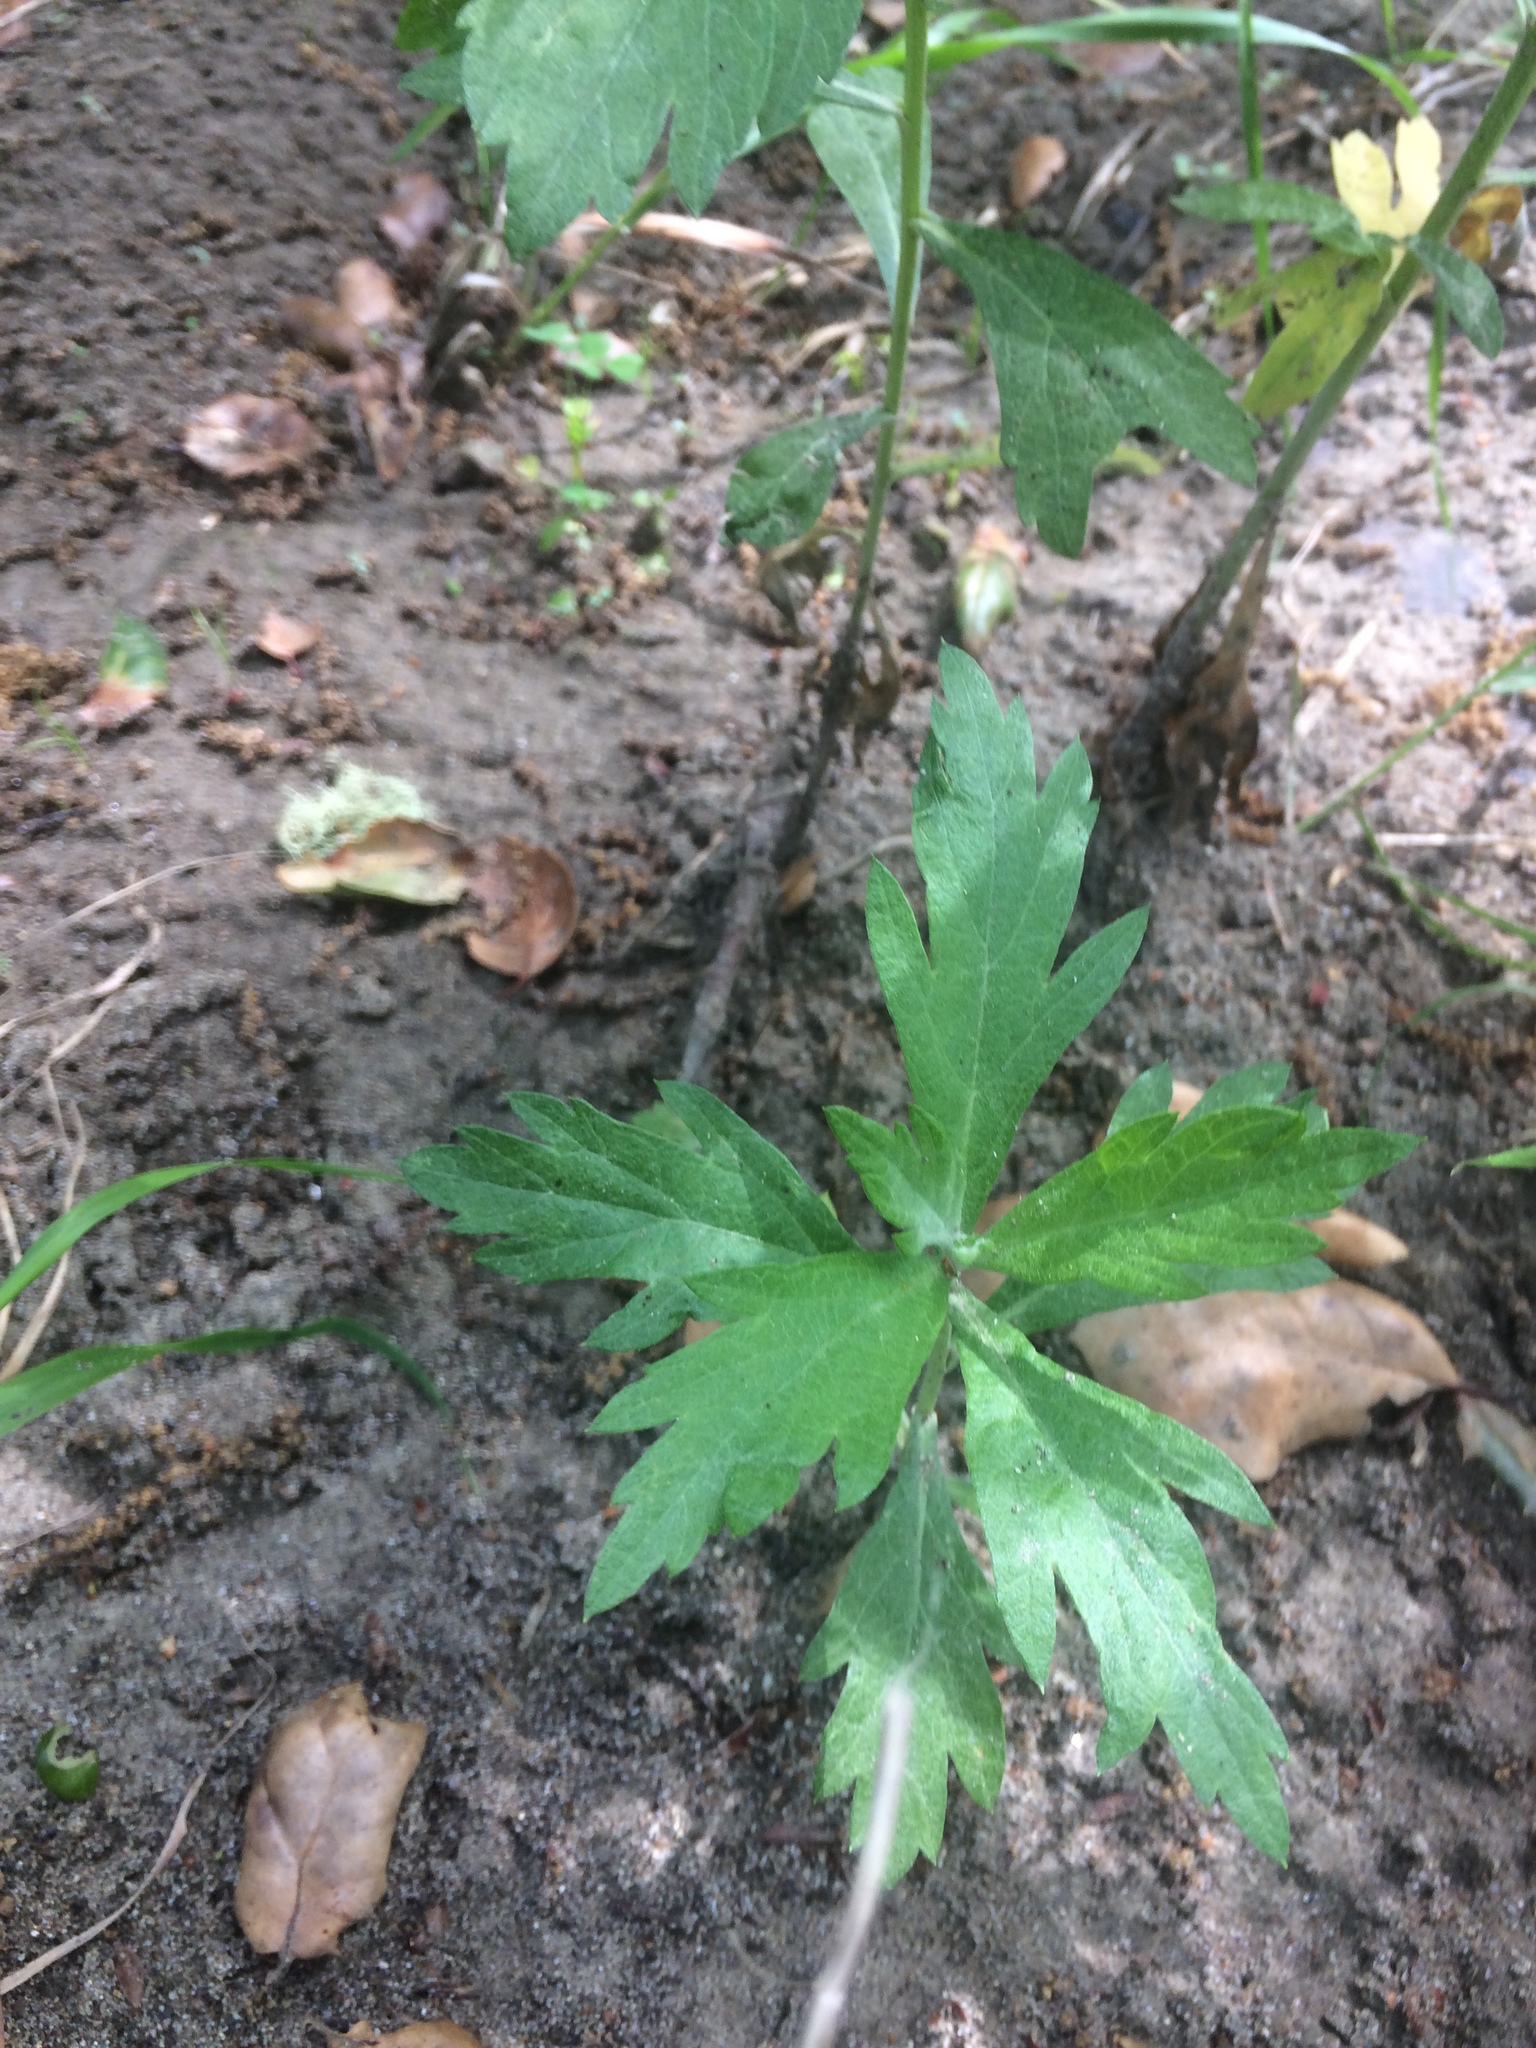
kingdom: Plantae
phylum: Tracheophyta
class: Magnoliopsida
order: Asterales
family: Asteraceae
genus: Artemisia
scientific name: Artemisia douglasiana
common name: Northwest mugwort
